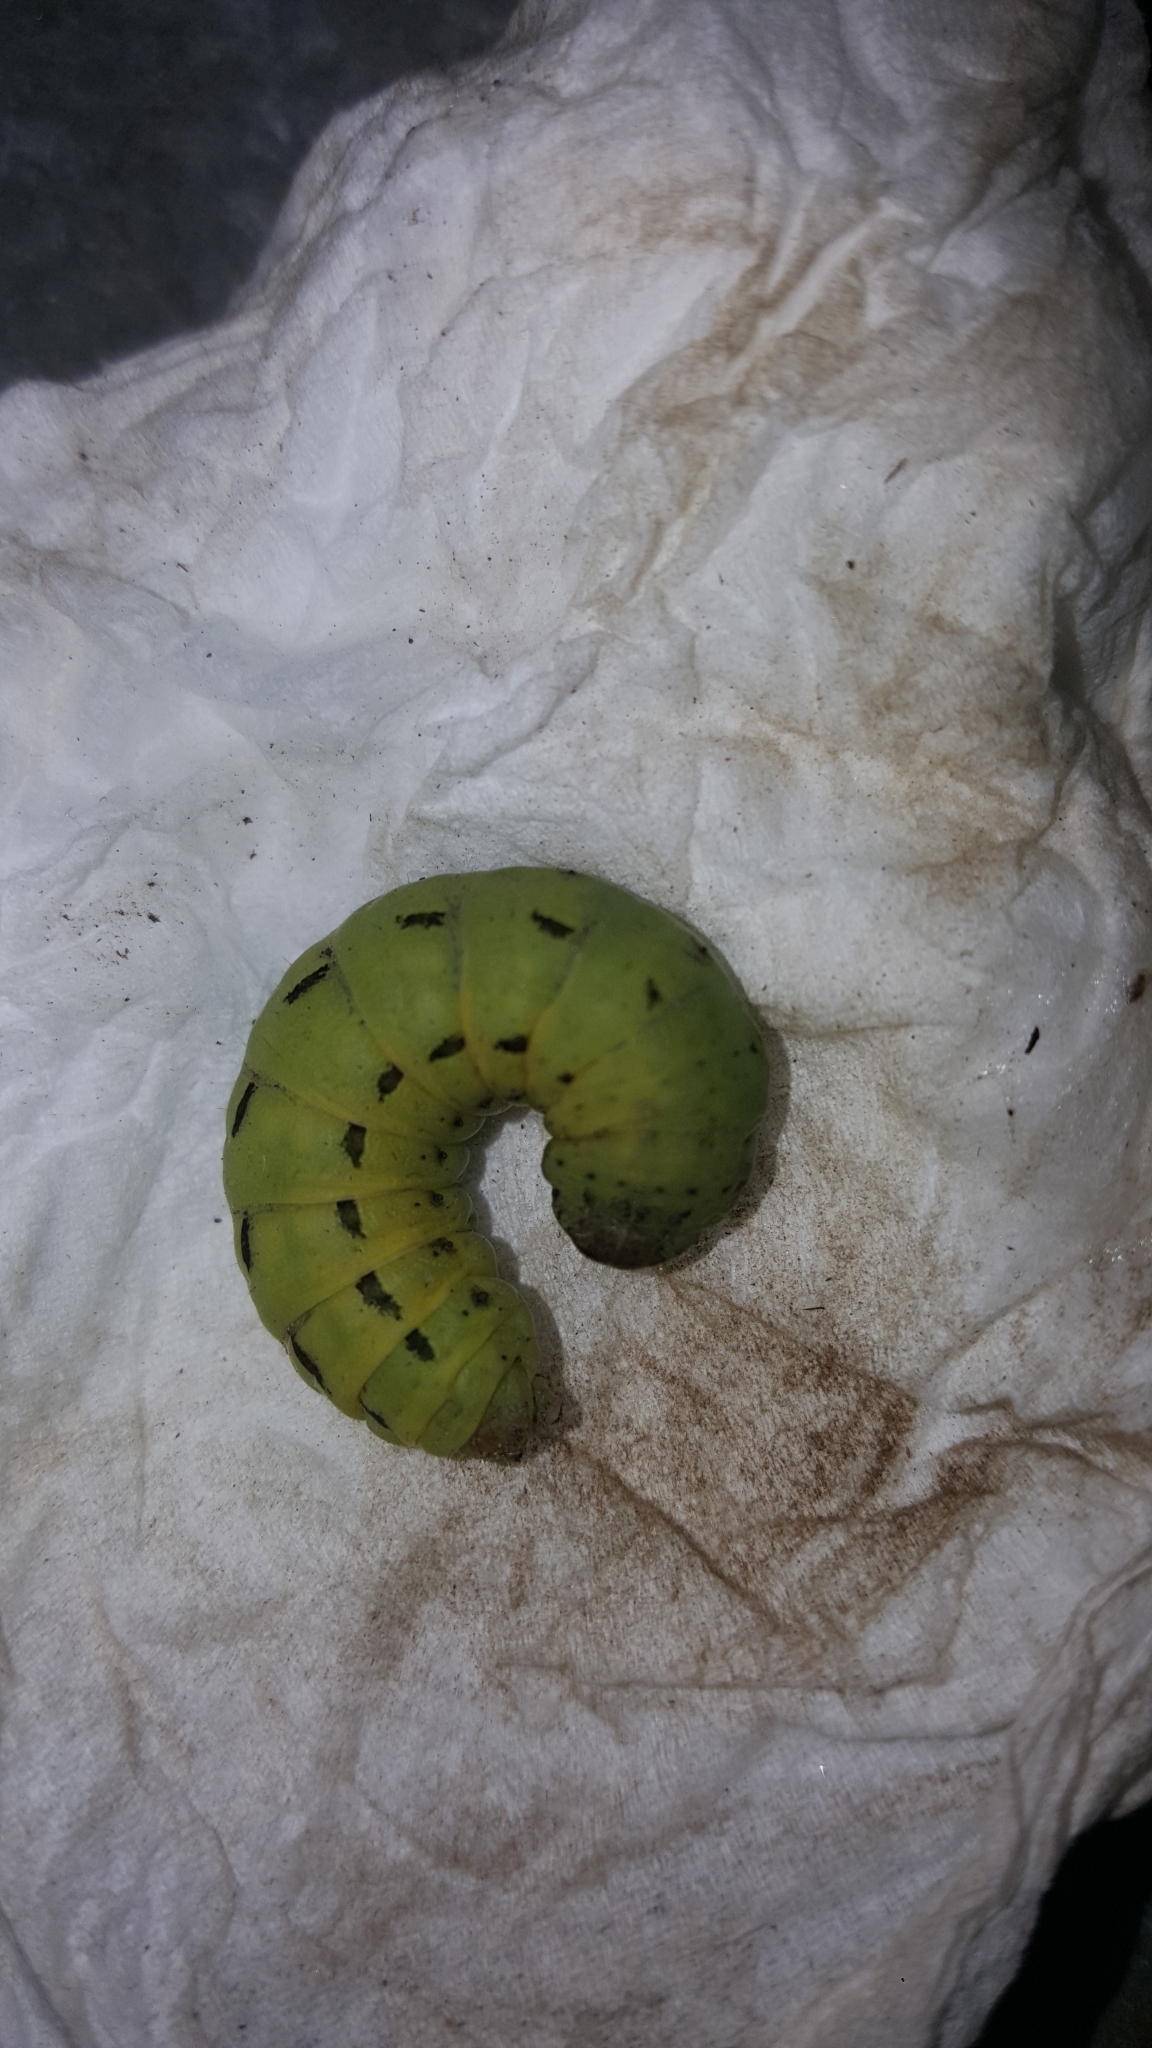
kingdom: Animalia
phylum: Arthropoda
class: Insecta
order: Lepidoptera
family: Noctuidae
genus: Noctua
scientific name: Noctua pronuba
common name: Large yellow underwing
